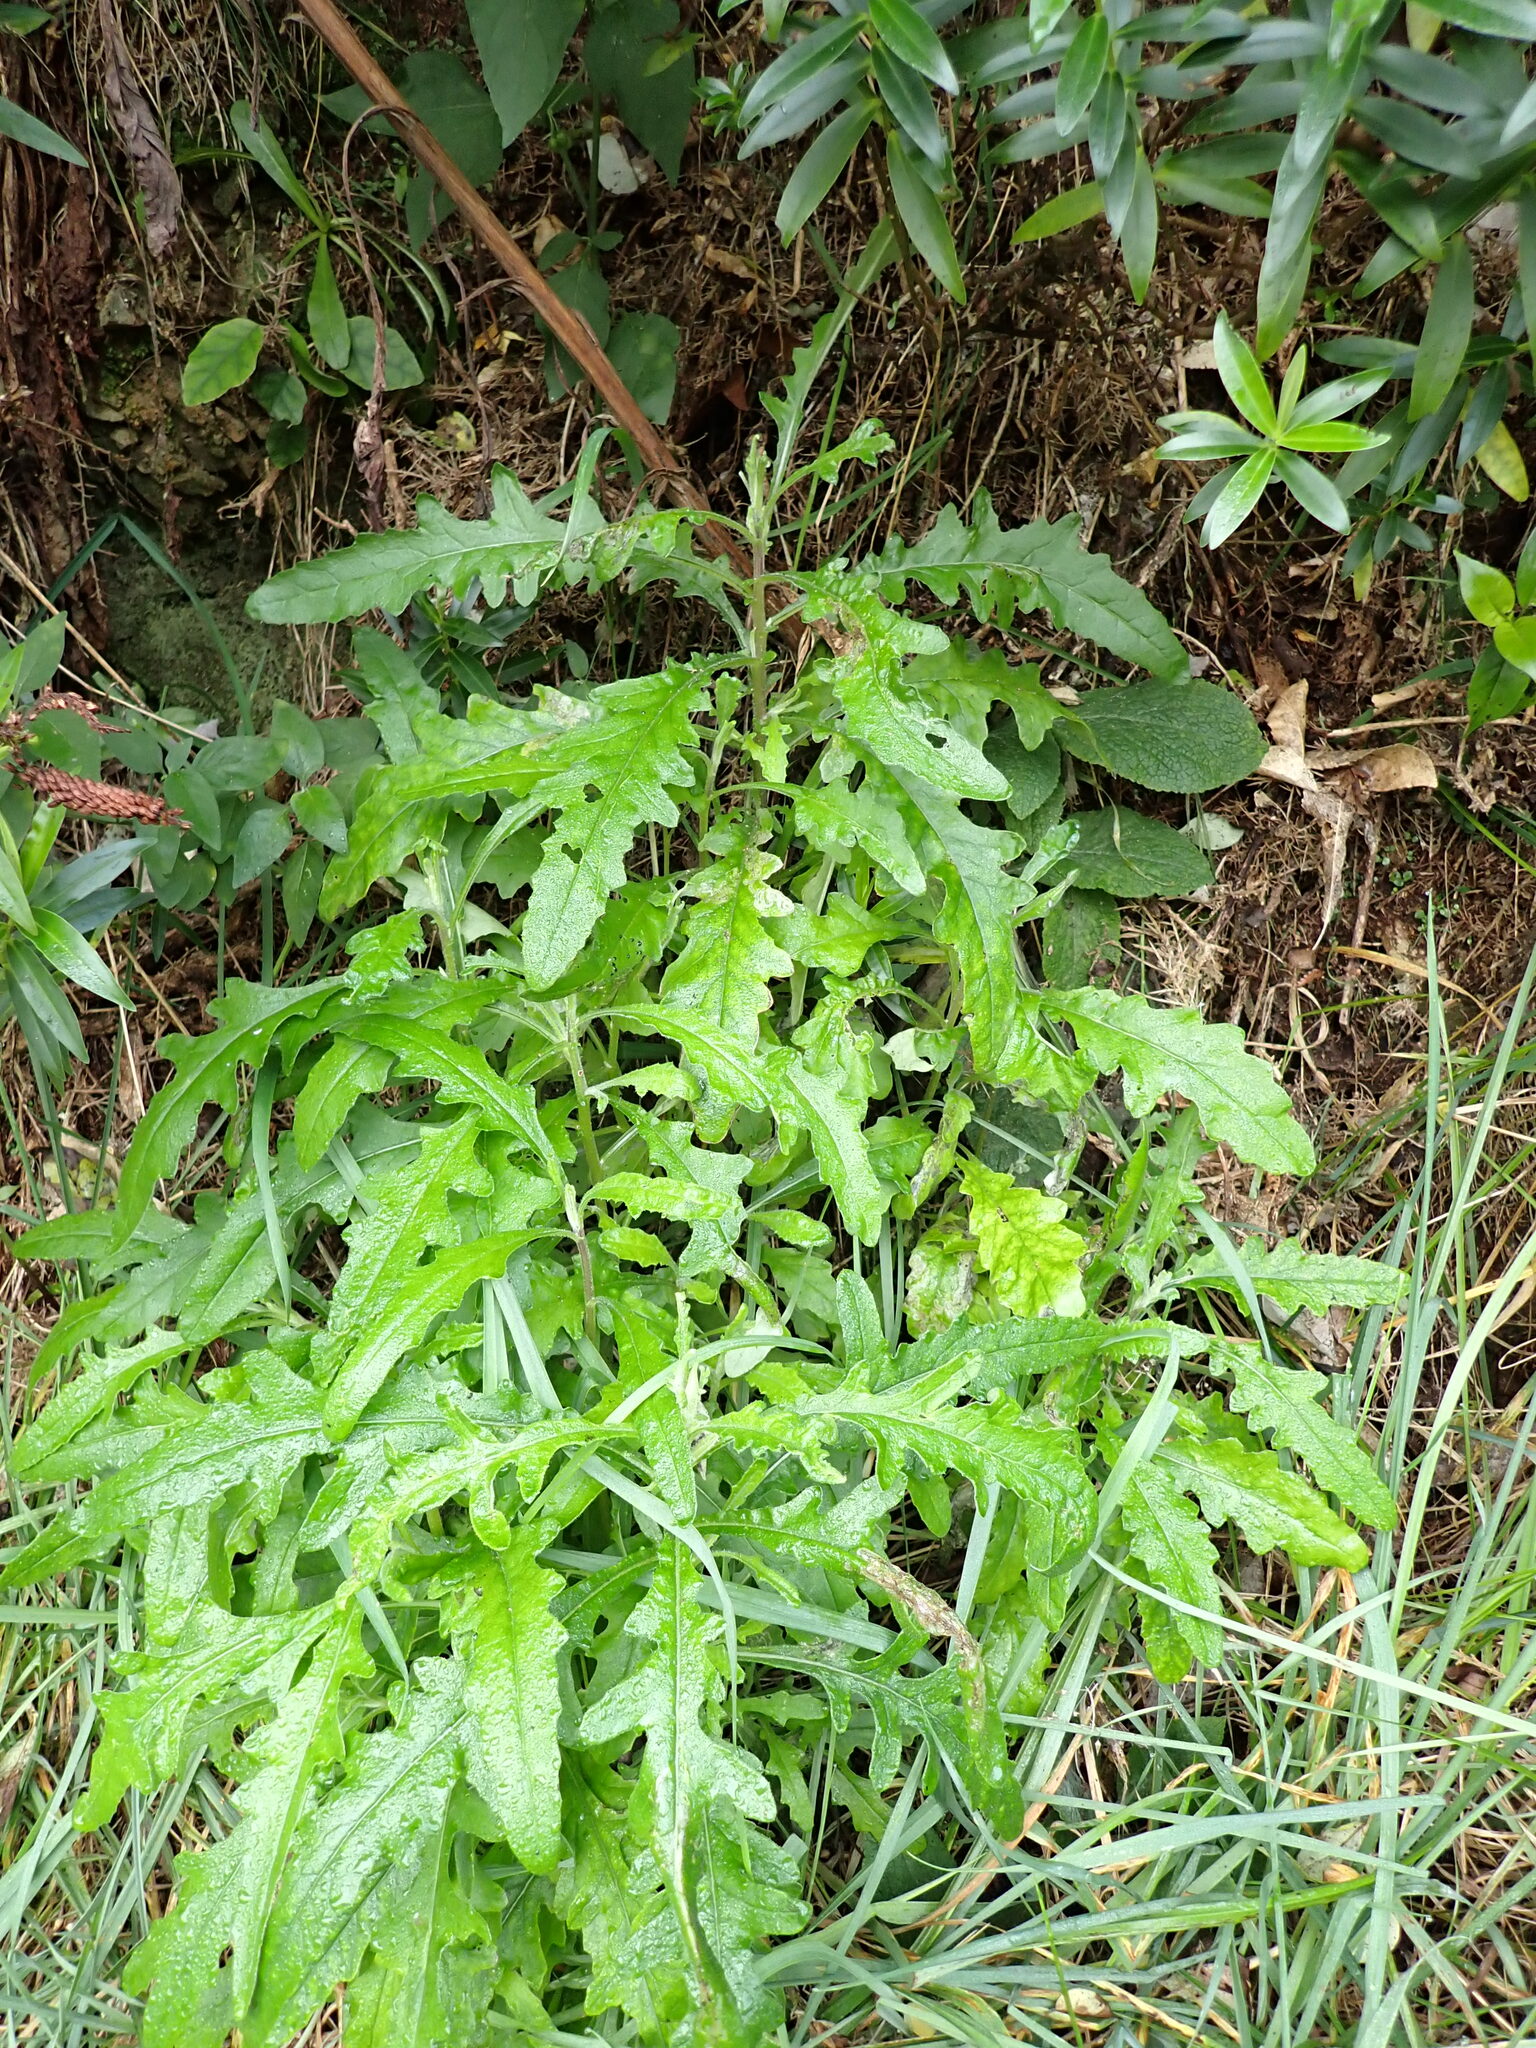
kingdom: Plantae
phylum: Tracheophyta
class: Magnoliopsida
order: Asterales
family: Asteraceae
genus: Senecio
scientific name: Senecio glomeratus
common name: Cutleaf burnweed
